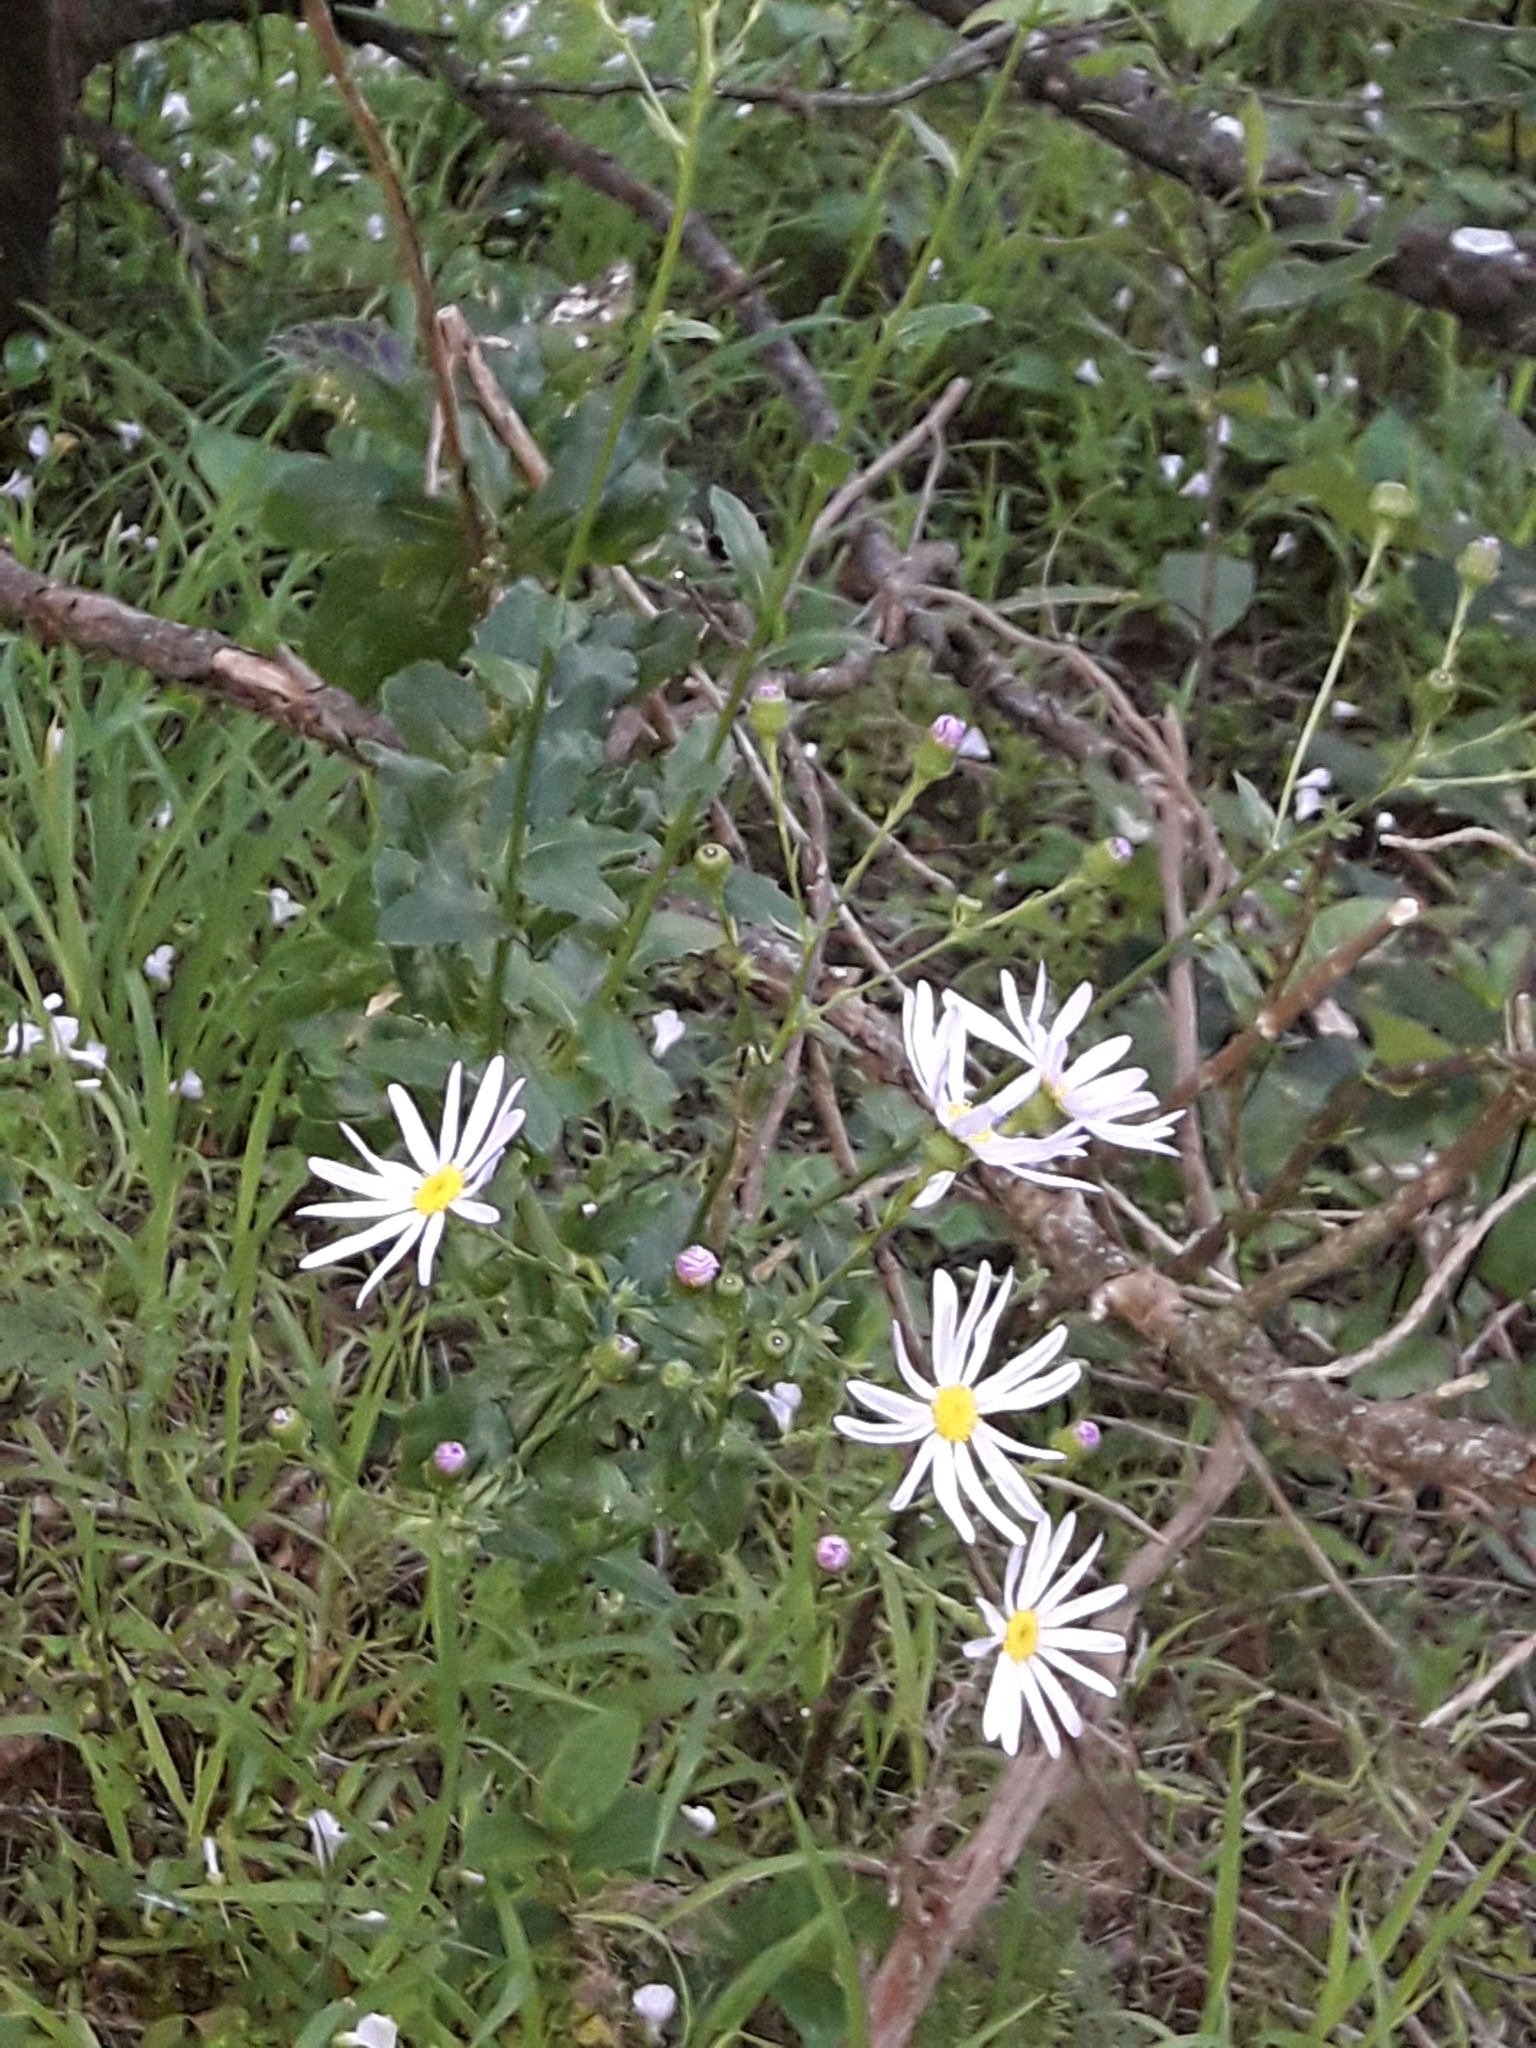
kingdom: Plantae
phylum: Tracheophyta
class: Magnoliopsida
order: Asterales
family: Asteraceae
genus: Senecio
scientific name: Senecio glastifolius
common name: Woad-leaved ragwort
